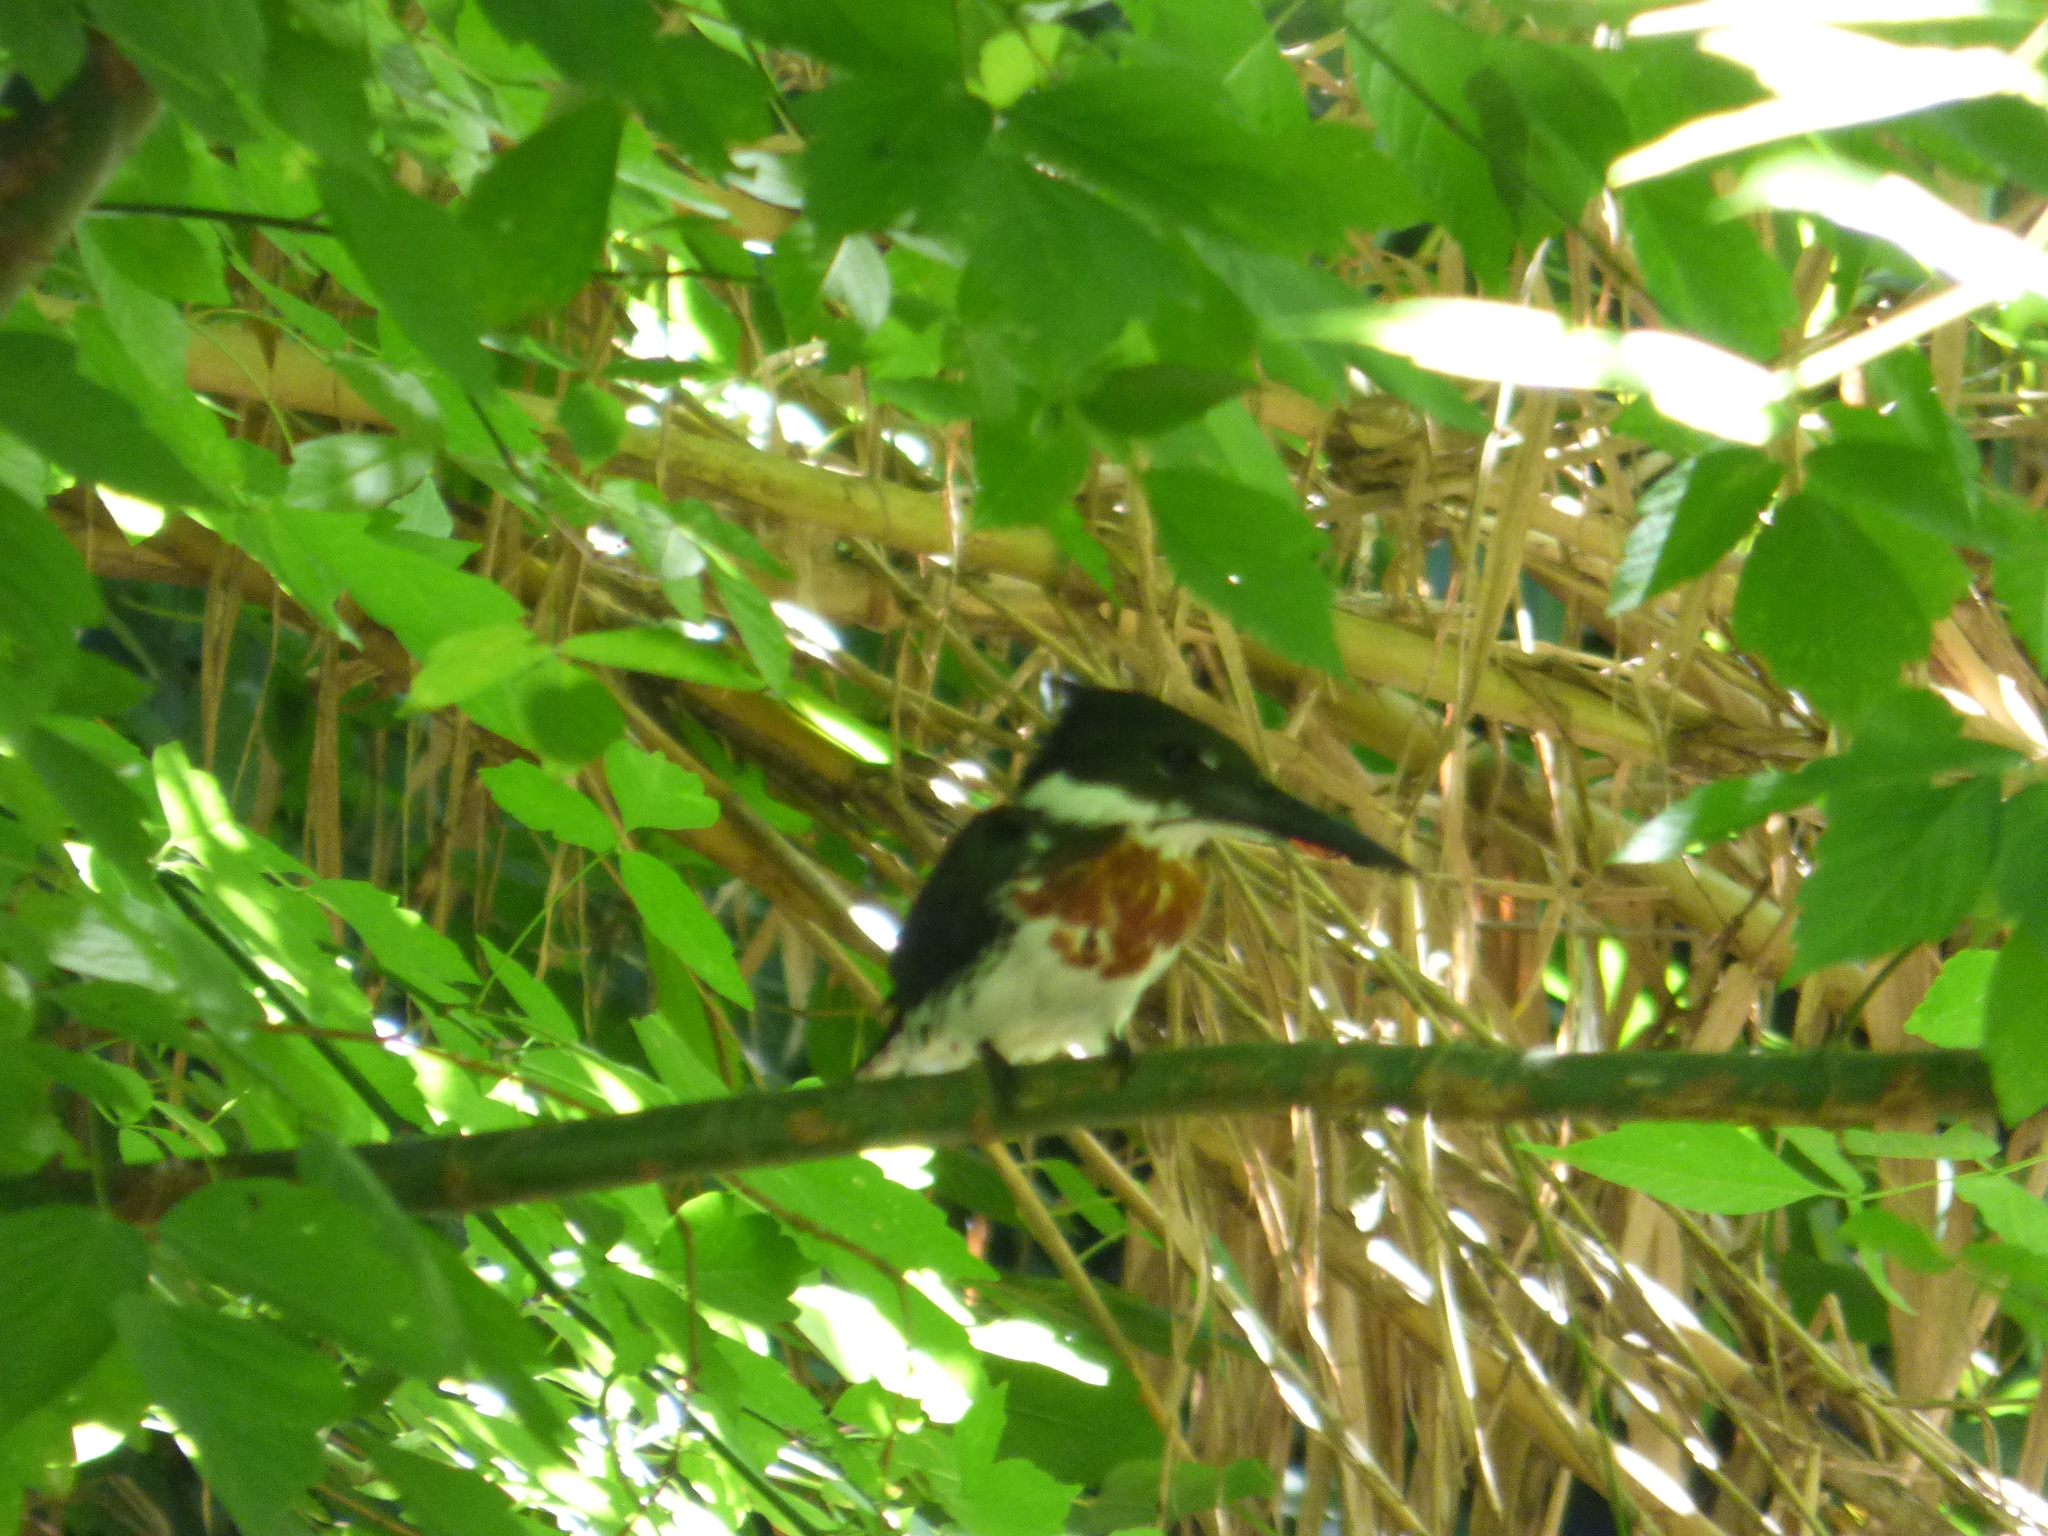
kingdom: Animalia
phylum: Chordata
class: Aves
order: Coraciiformes
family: Alcedinidae
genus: Chloroceryle
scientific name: Chloroceryle amazona
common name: Amazon kingfisher
